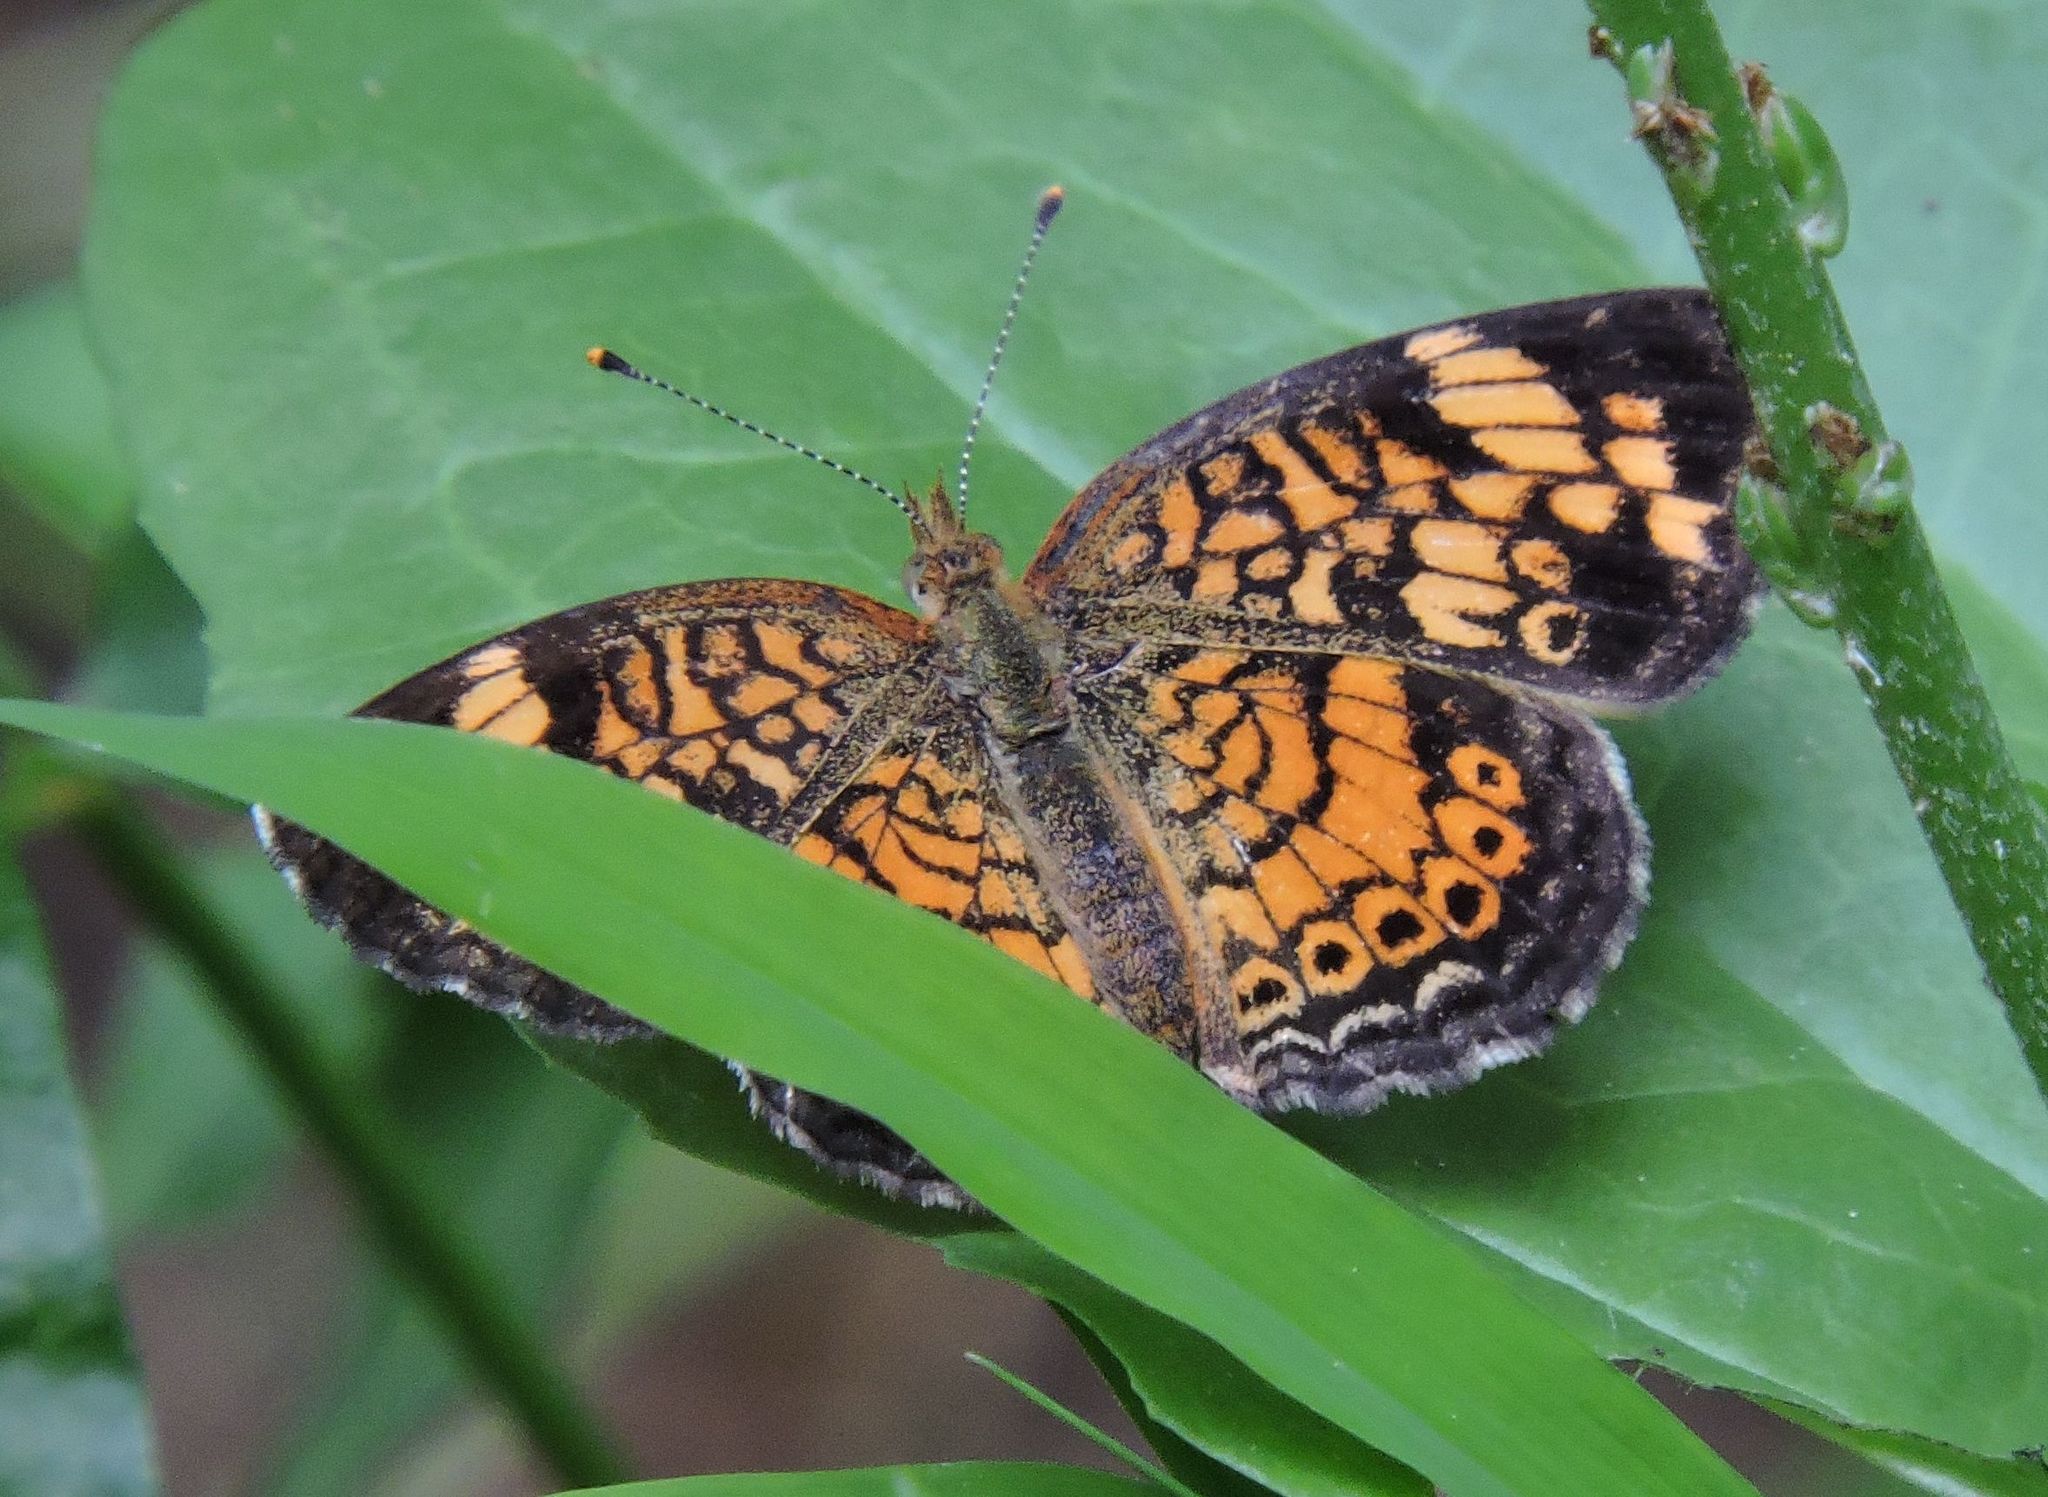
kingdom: Animalia
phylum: Arthropoda
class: Insecta
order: Lepidoptera
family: Nymphalidae
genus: Phyciodes
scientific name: Phyciodes tharos
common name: Pearl crescent
